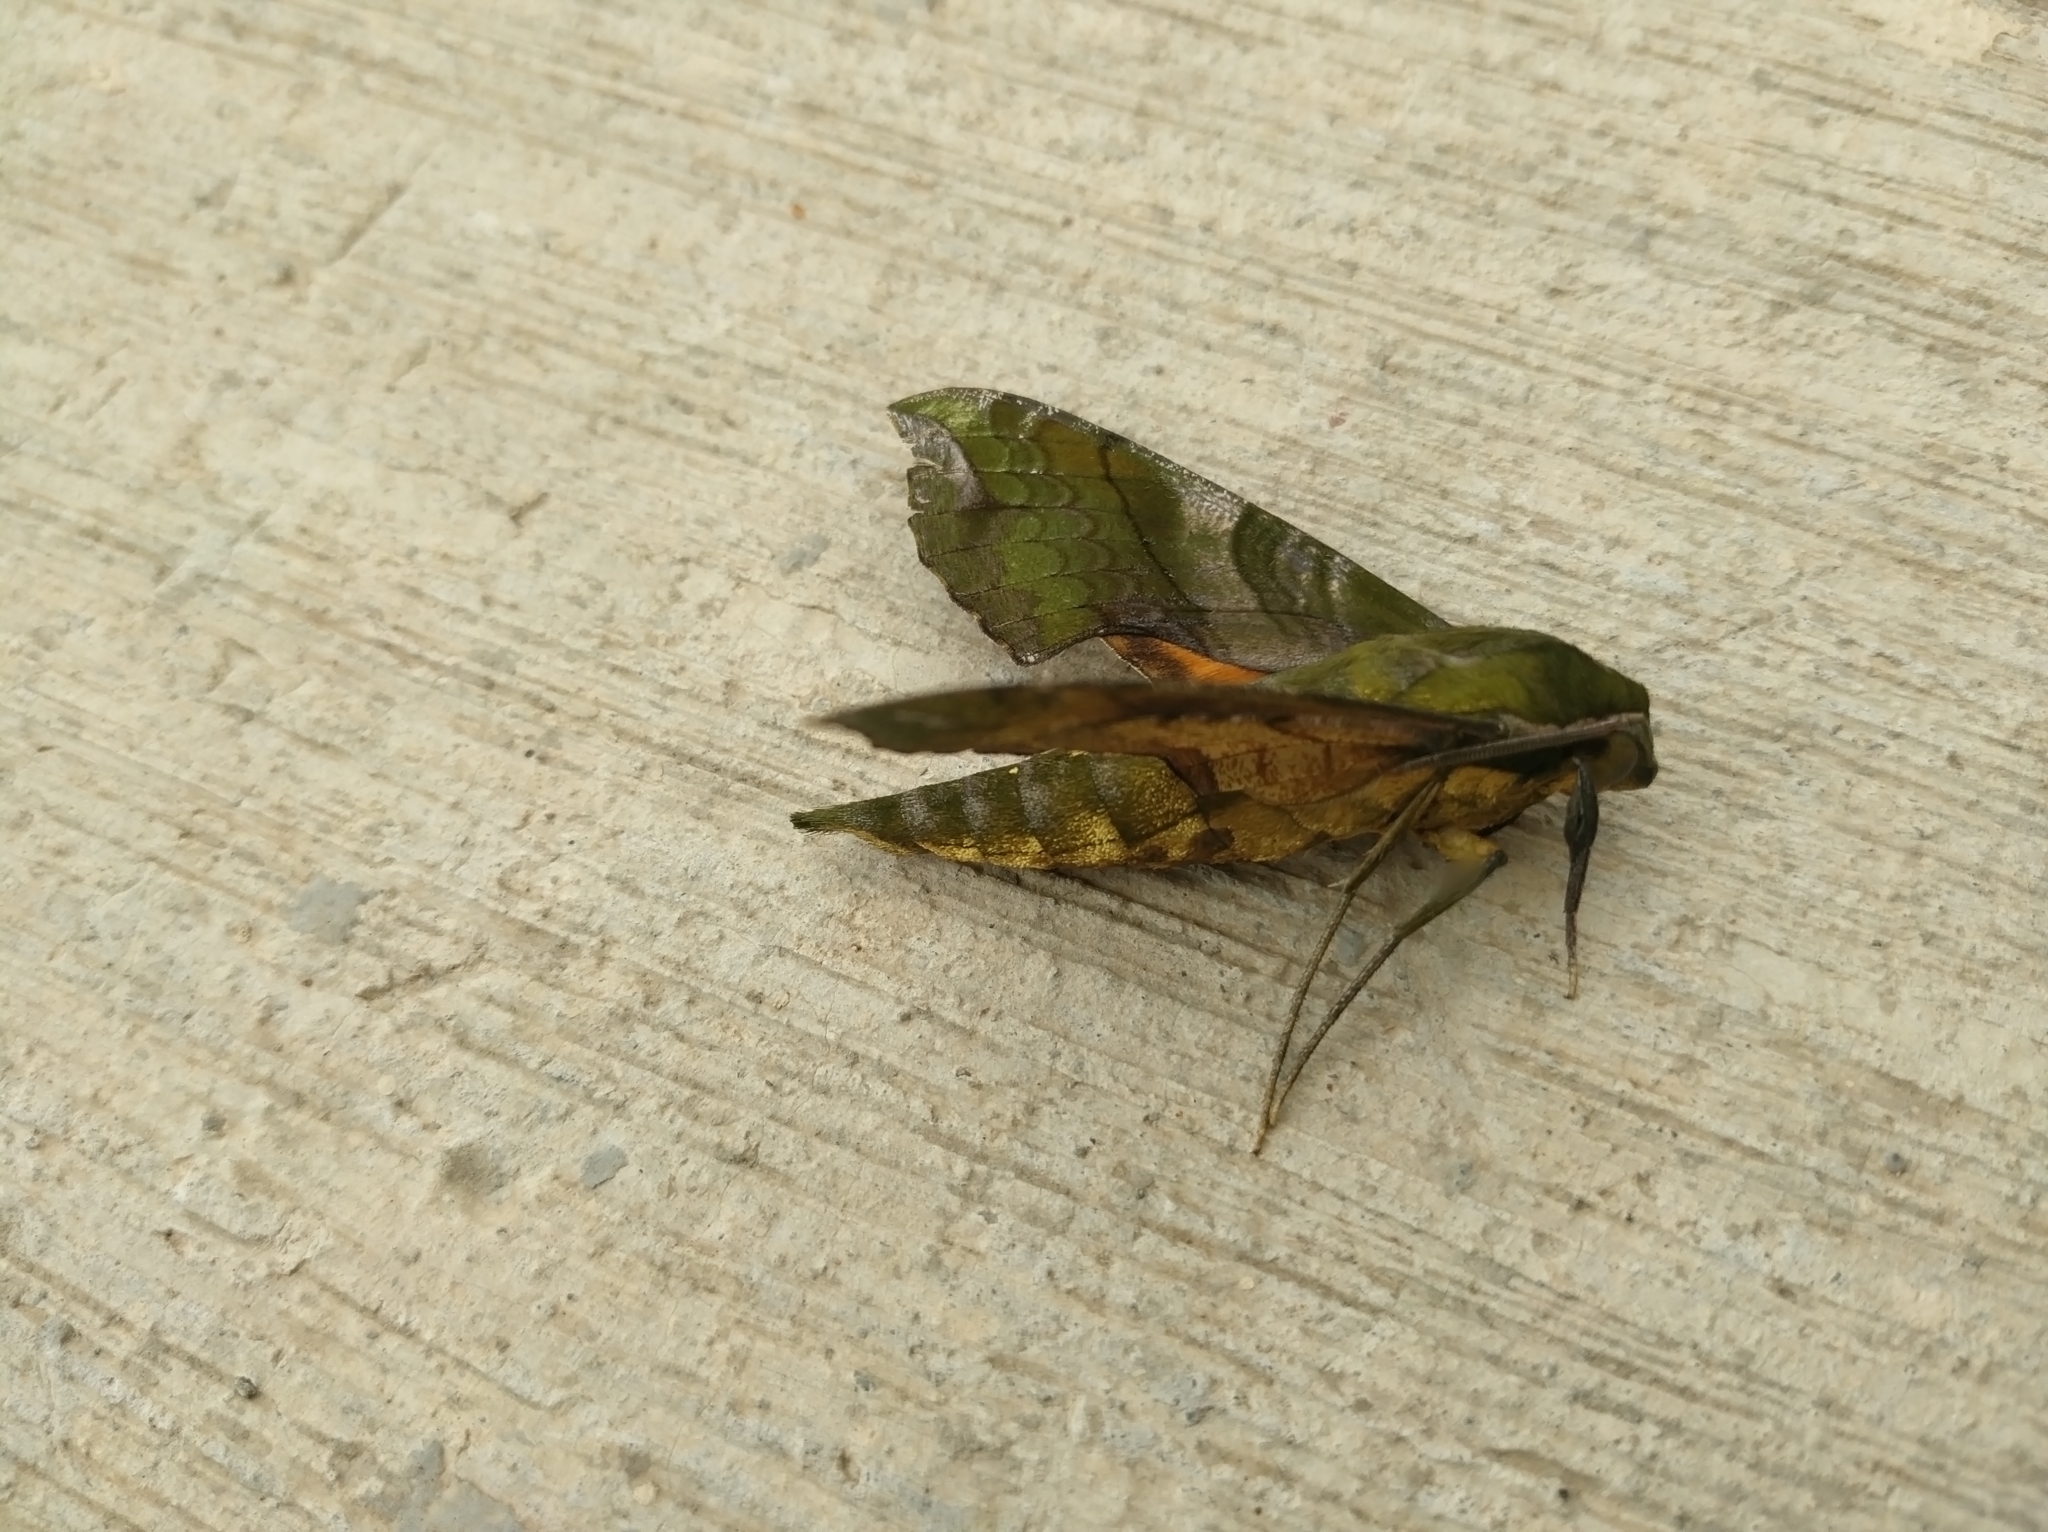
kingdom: Animalia
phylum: Arthropoda
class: Insecta
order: Lepidoptera
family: Sphingidae
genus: Xylophanes
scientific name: Xylophanes pluto
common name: Pluto sphinx
